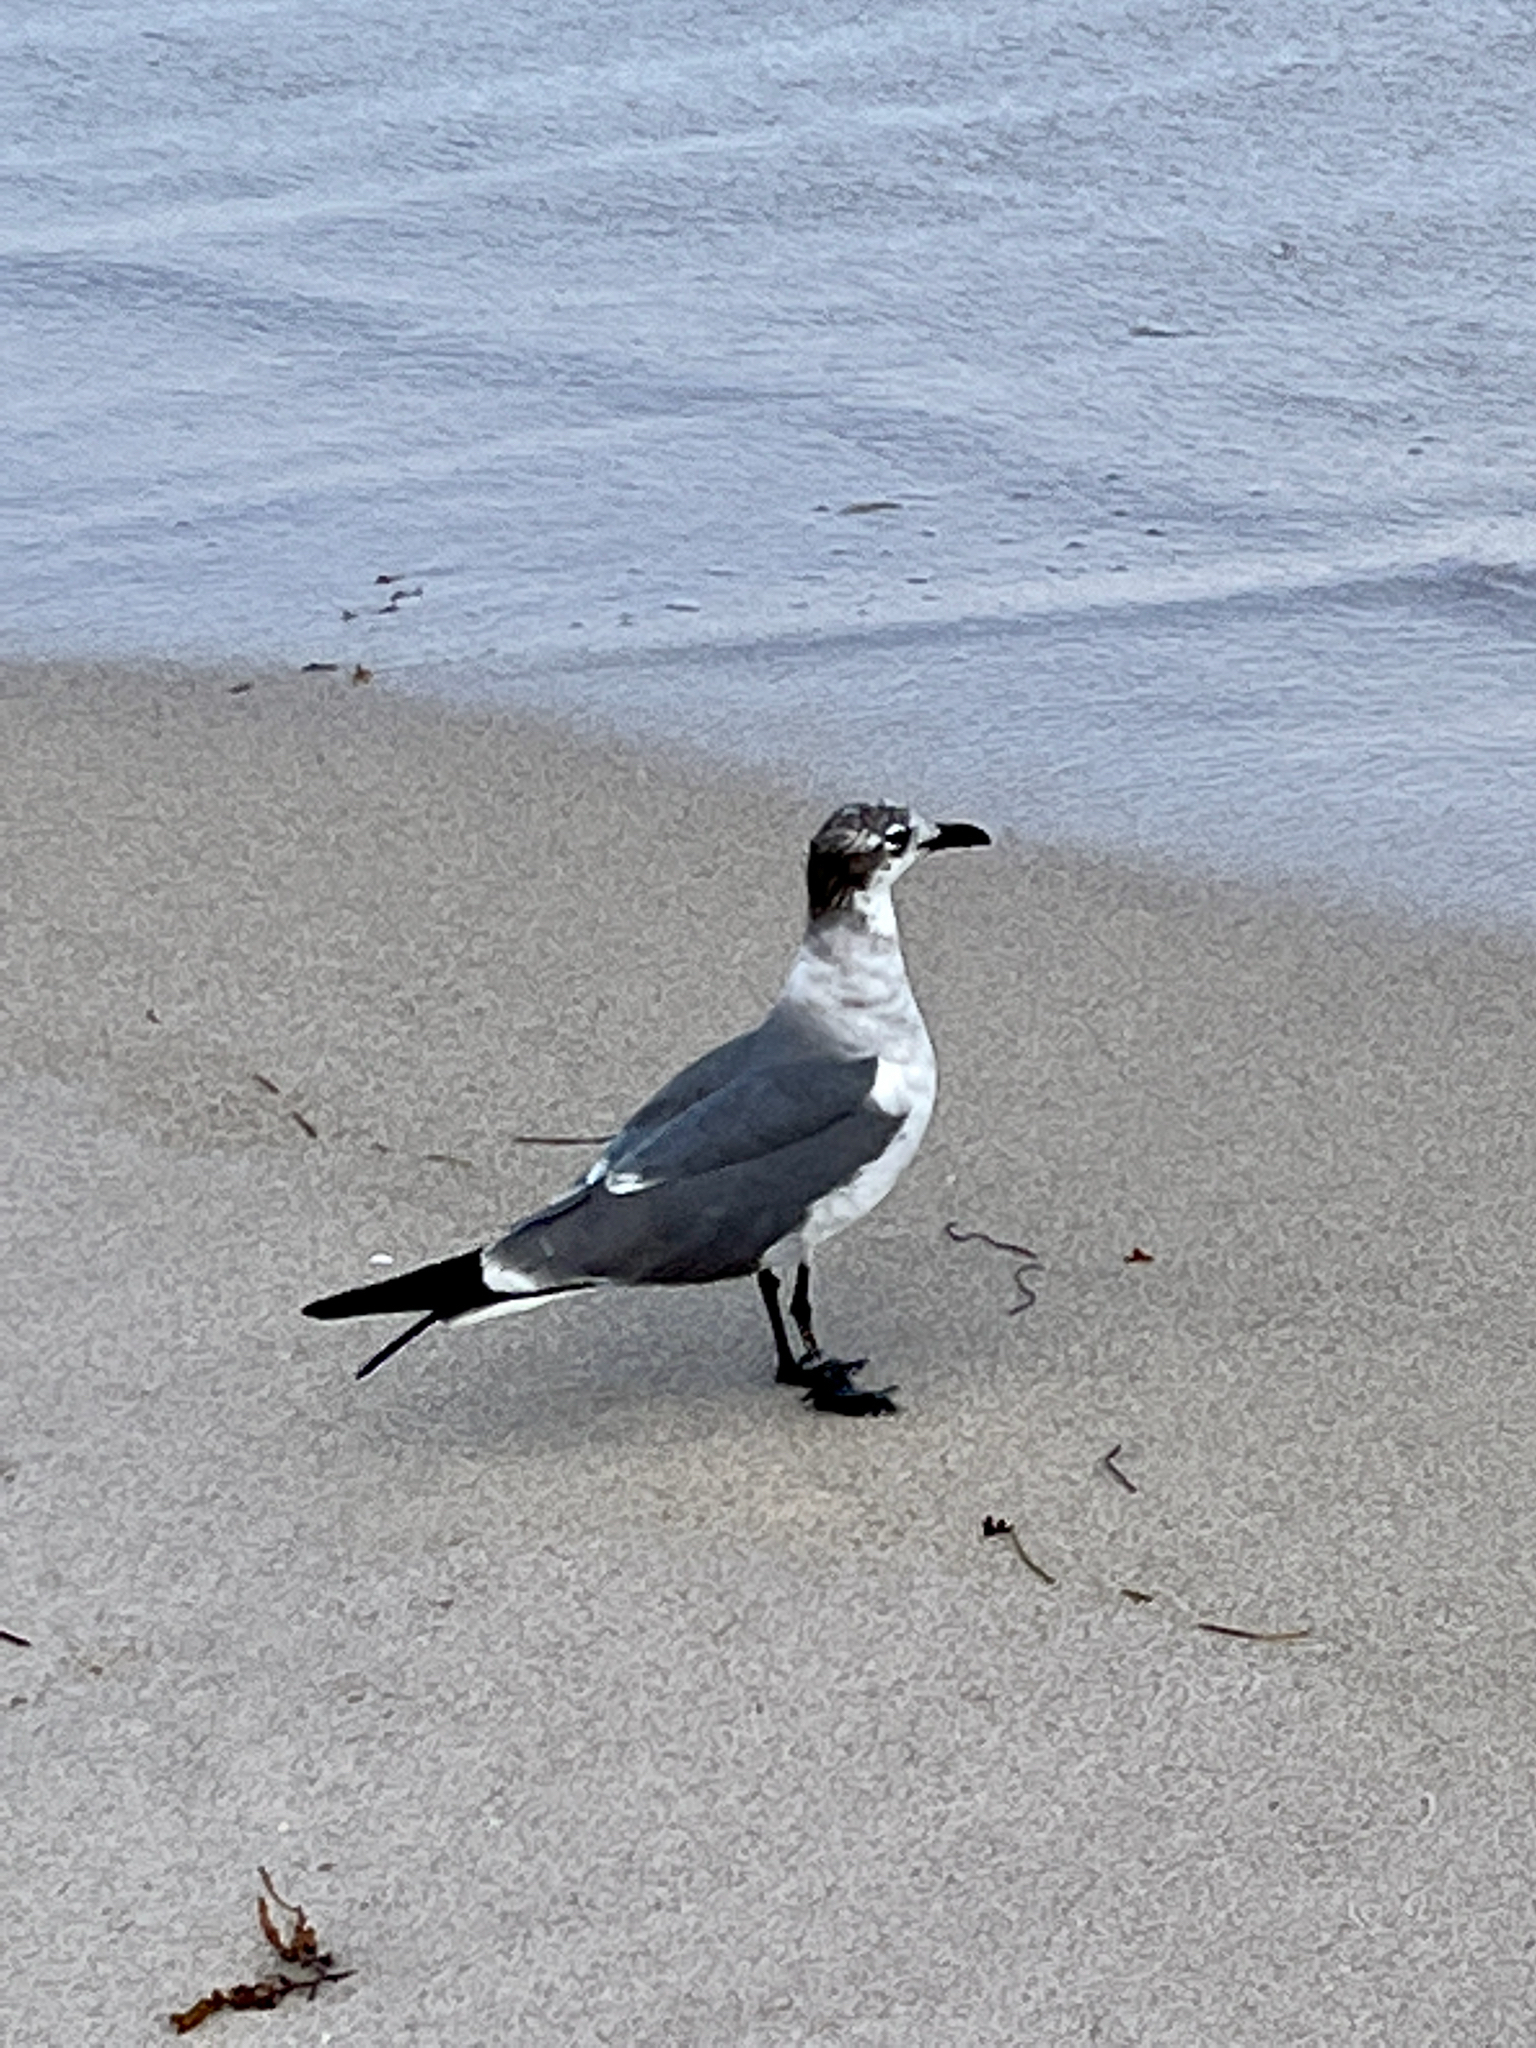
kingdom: Animalia
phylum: Chordata
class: Aves
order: Charadriiformes
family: Laridae
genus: Leucophaeus
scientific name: Leucophaeus atricilla
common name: Laughing gull
